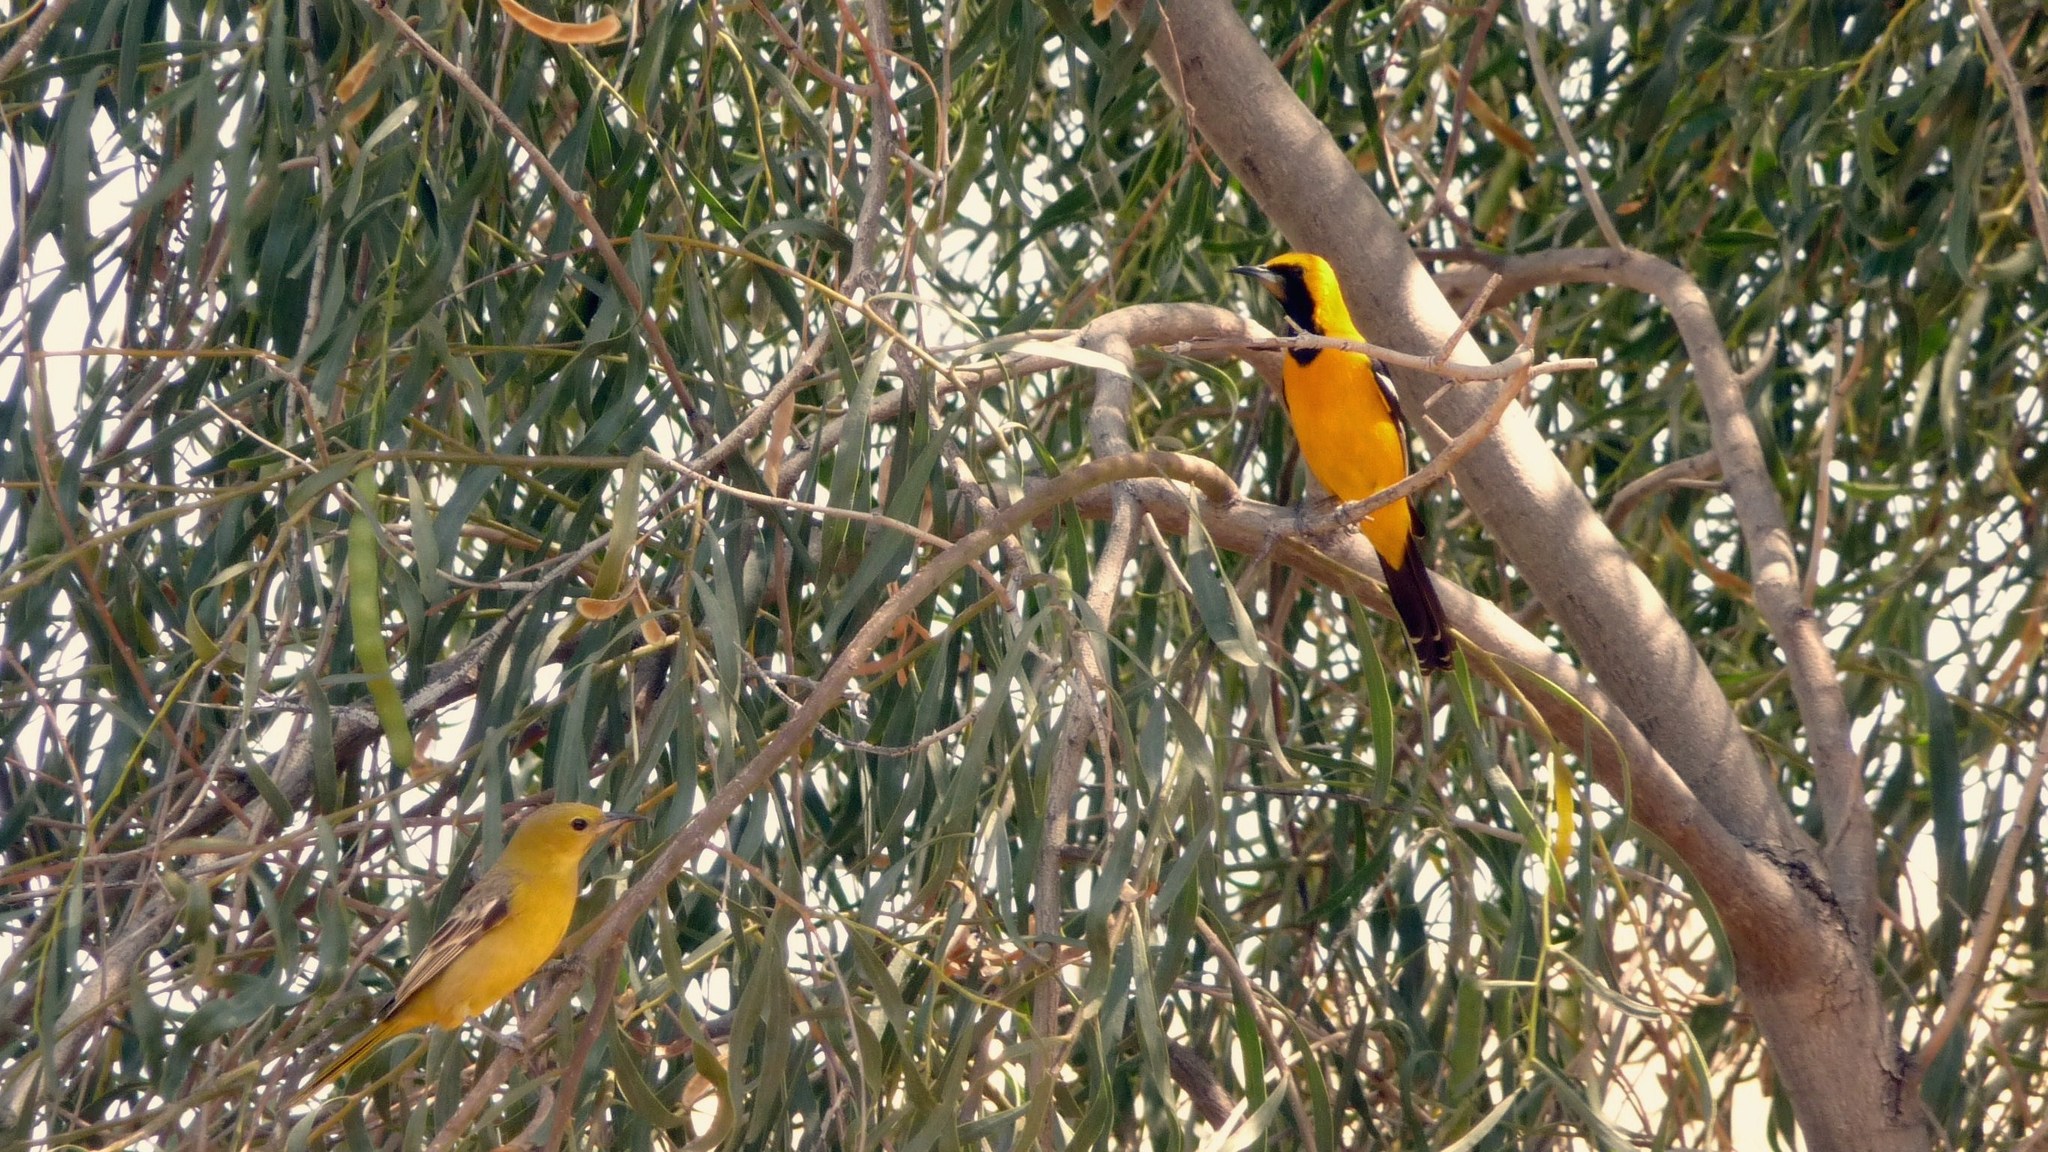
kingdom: Animalia
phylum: Chordata
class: Aves
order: Passeriformes
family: Icteridae
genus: Icterus
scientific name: Icterus cucullatus
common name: Hooded oriole
